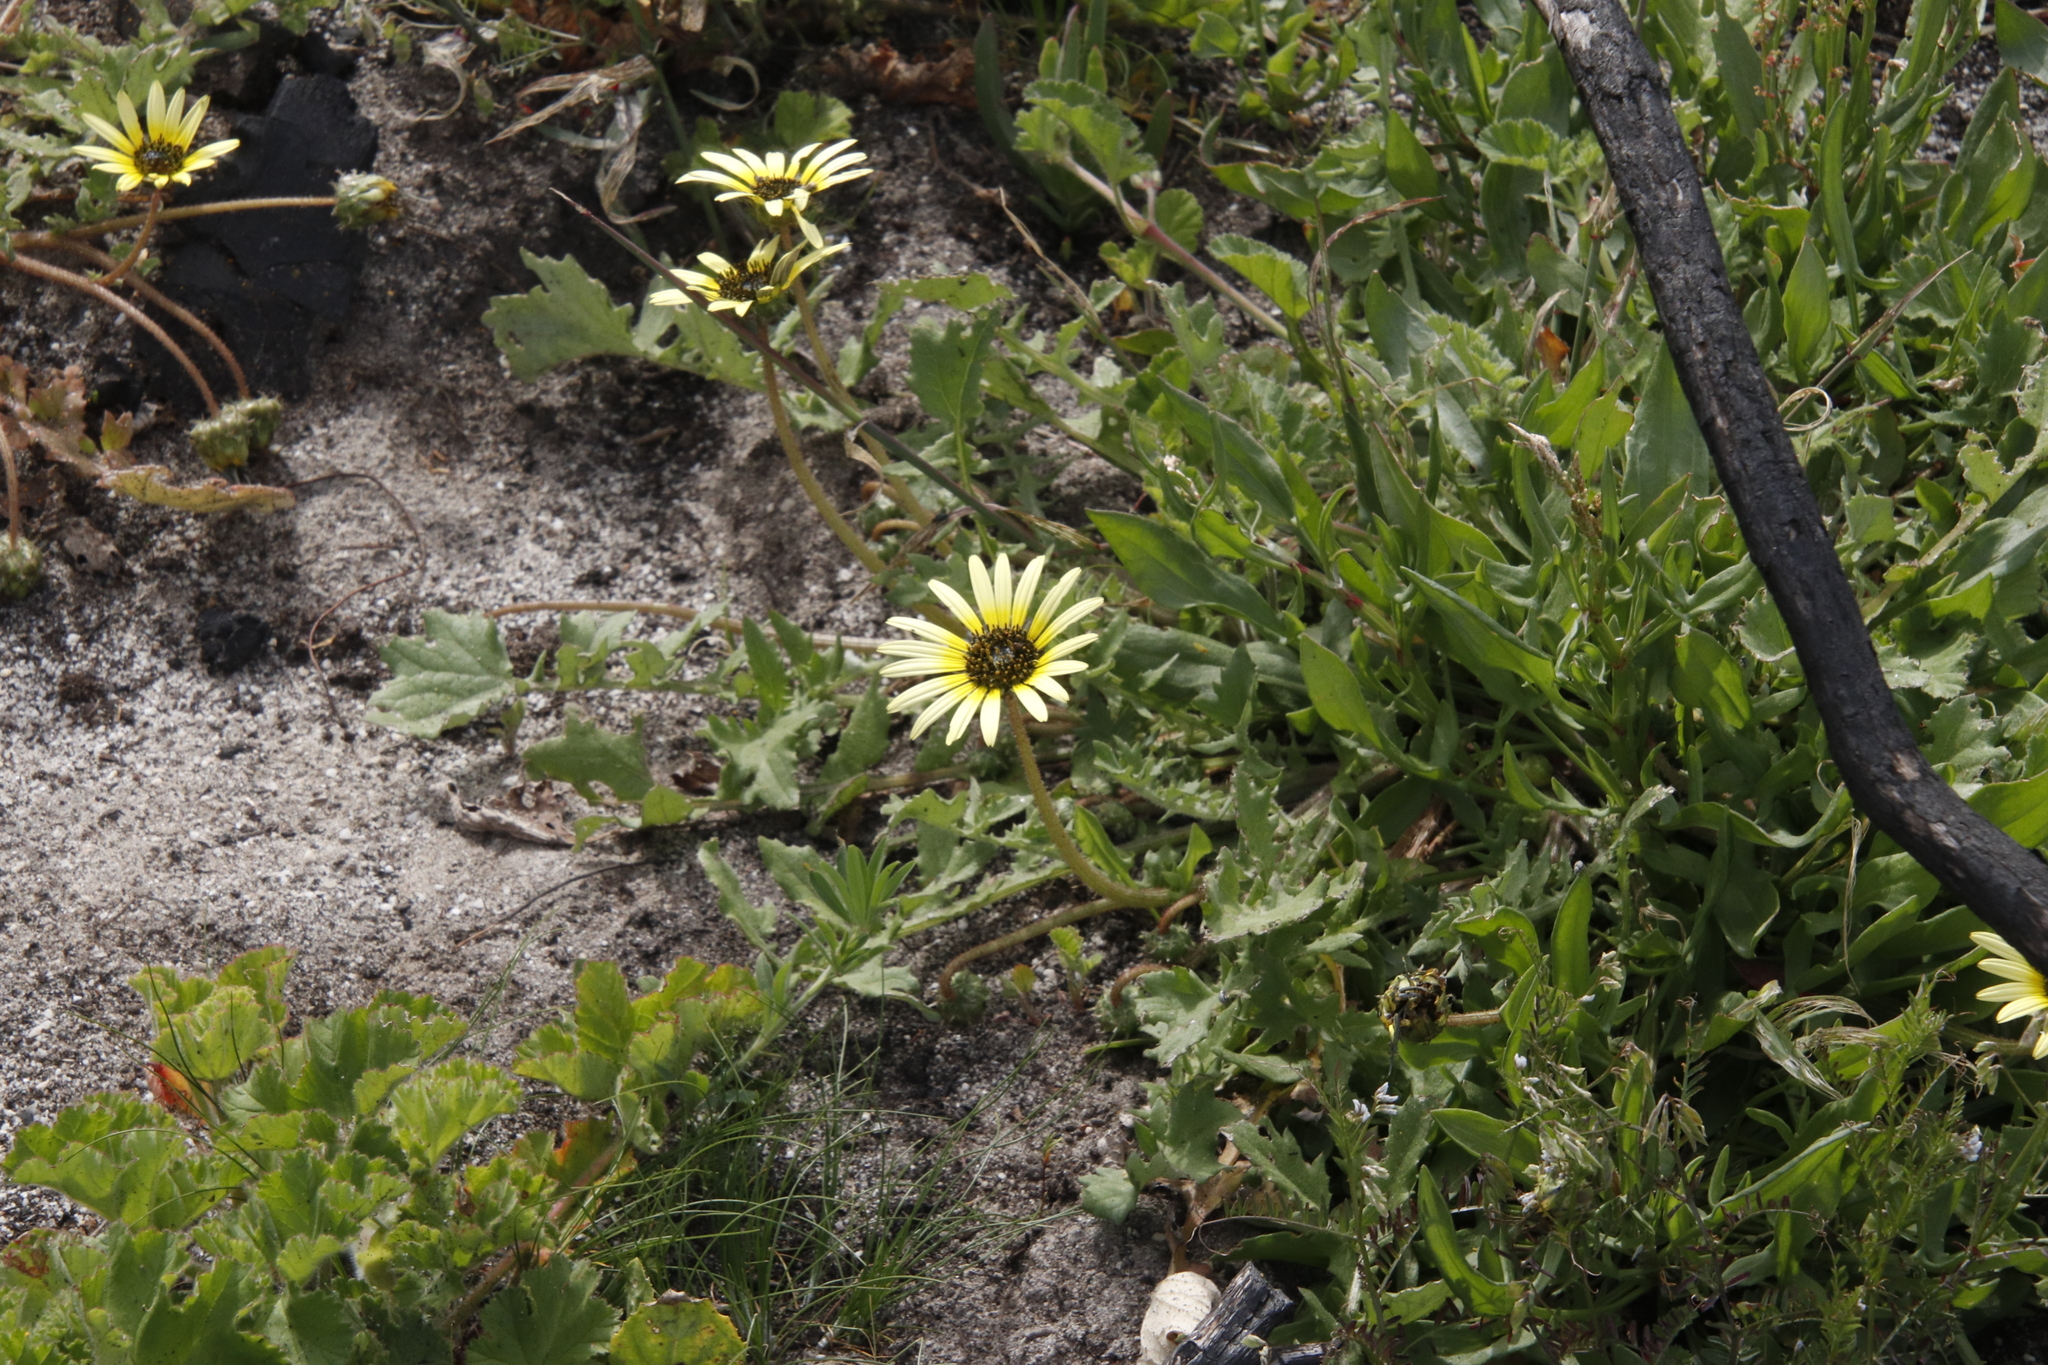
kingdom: Plantae
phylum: Tracheophyta
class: Magnoliopsida
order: Asterales
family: Asteraceae
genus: Arctotheca
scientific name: Arctotheca calendula
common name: Capeweed
